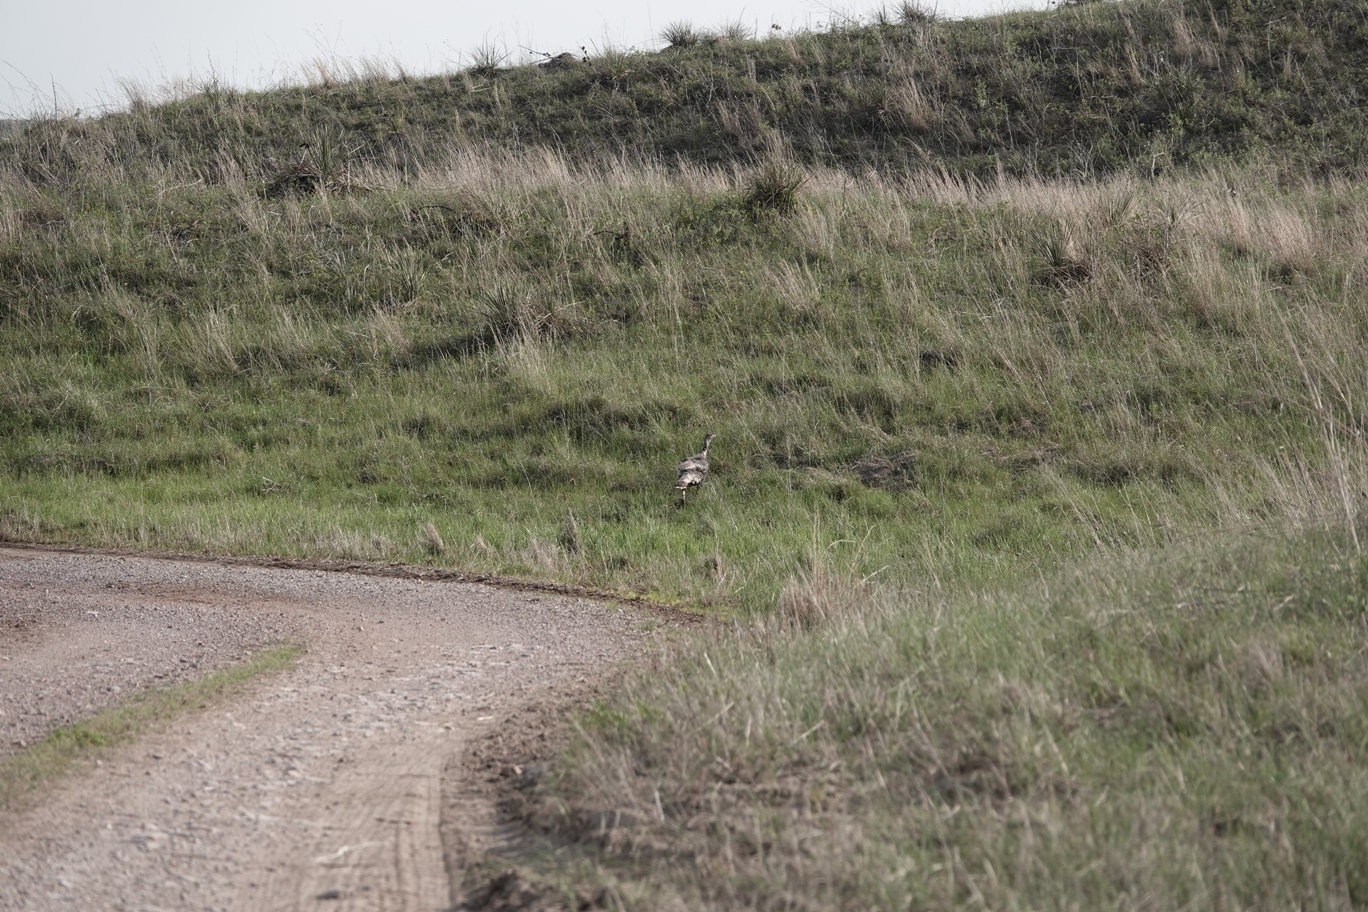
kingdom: Animalia
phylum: Chordata
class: Aves
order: Galliformes
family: Phasianidae
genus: Meleagris
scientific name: Meleagris gallopavo
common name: Wild turkey
